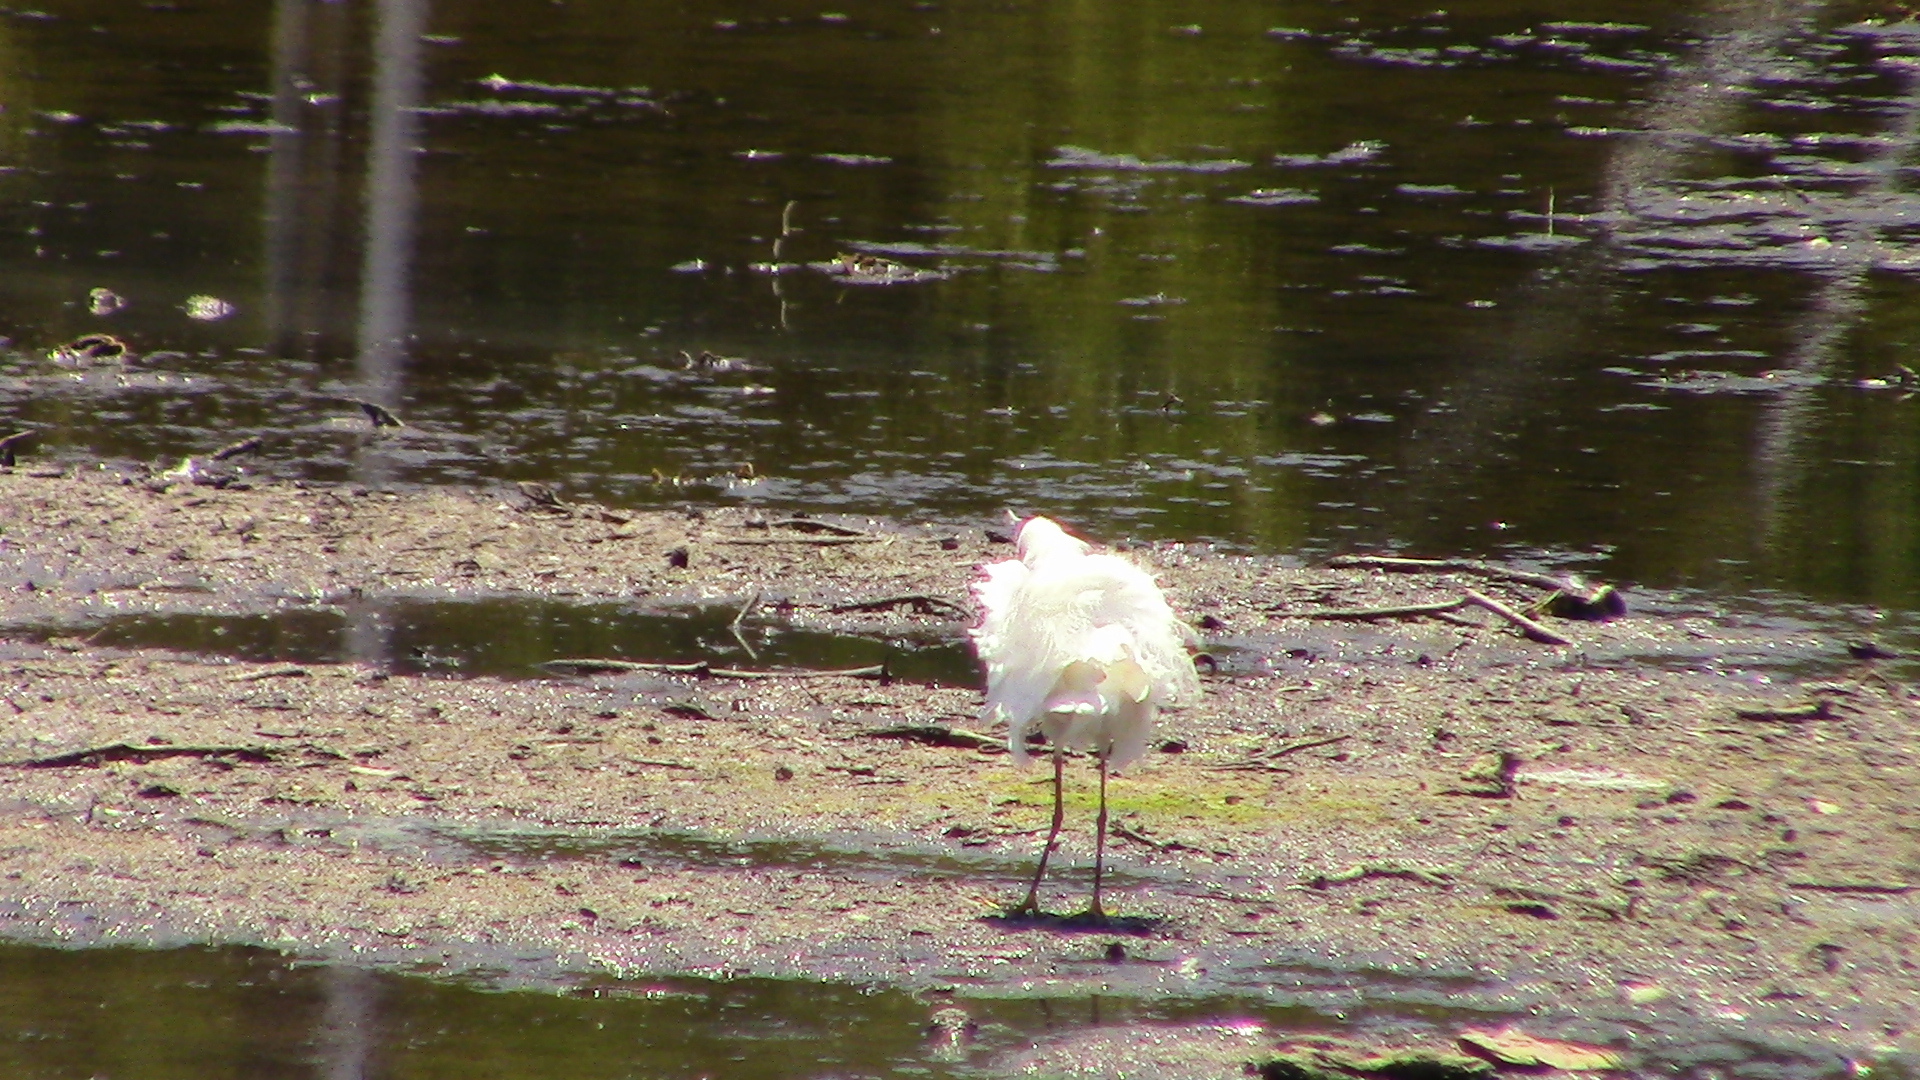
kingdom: Animalia
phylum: Chordata
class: Aves
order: Pelecaniformes
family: Ardeidae
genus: Egretta
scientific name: Egretta thula
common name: Snowy egret
